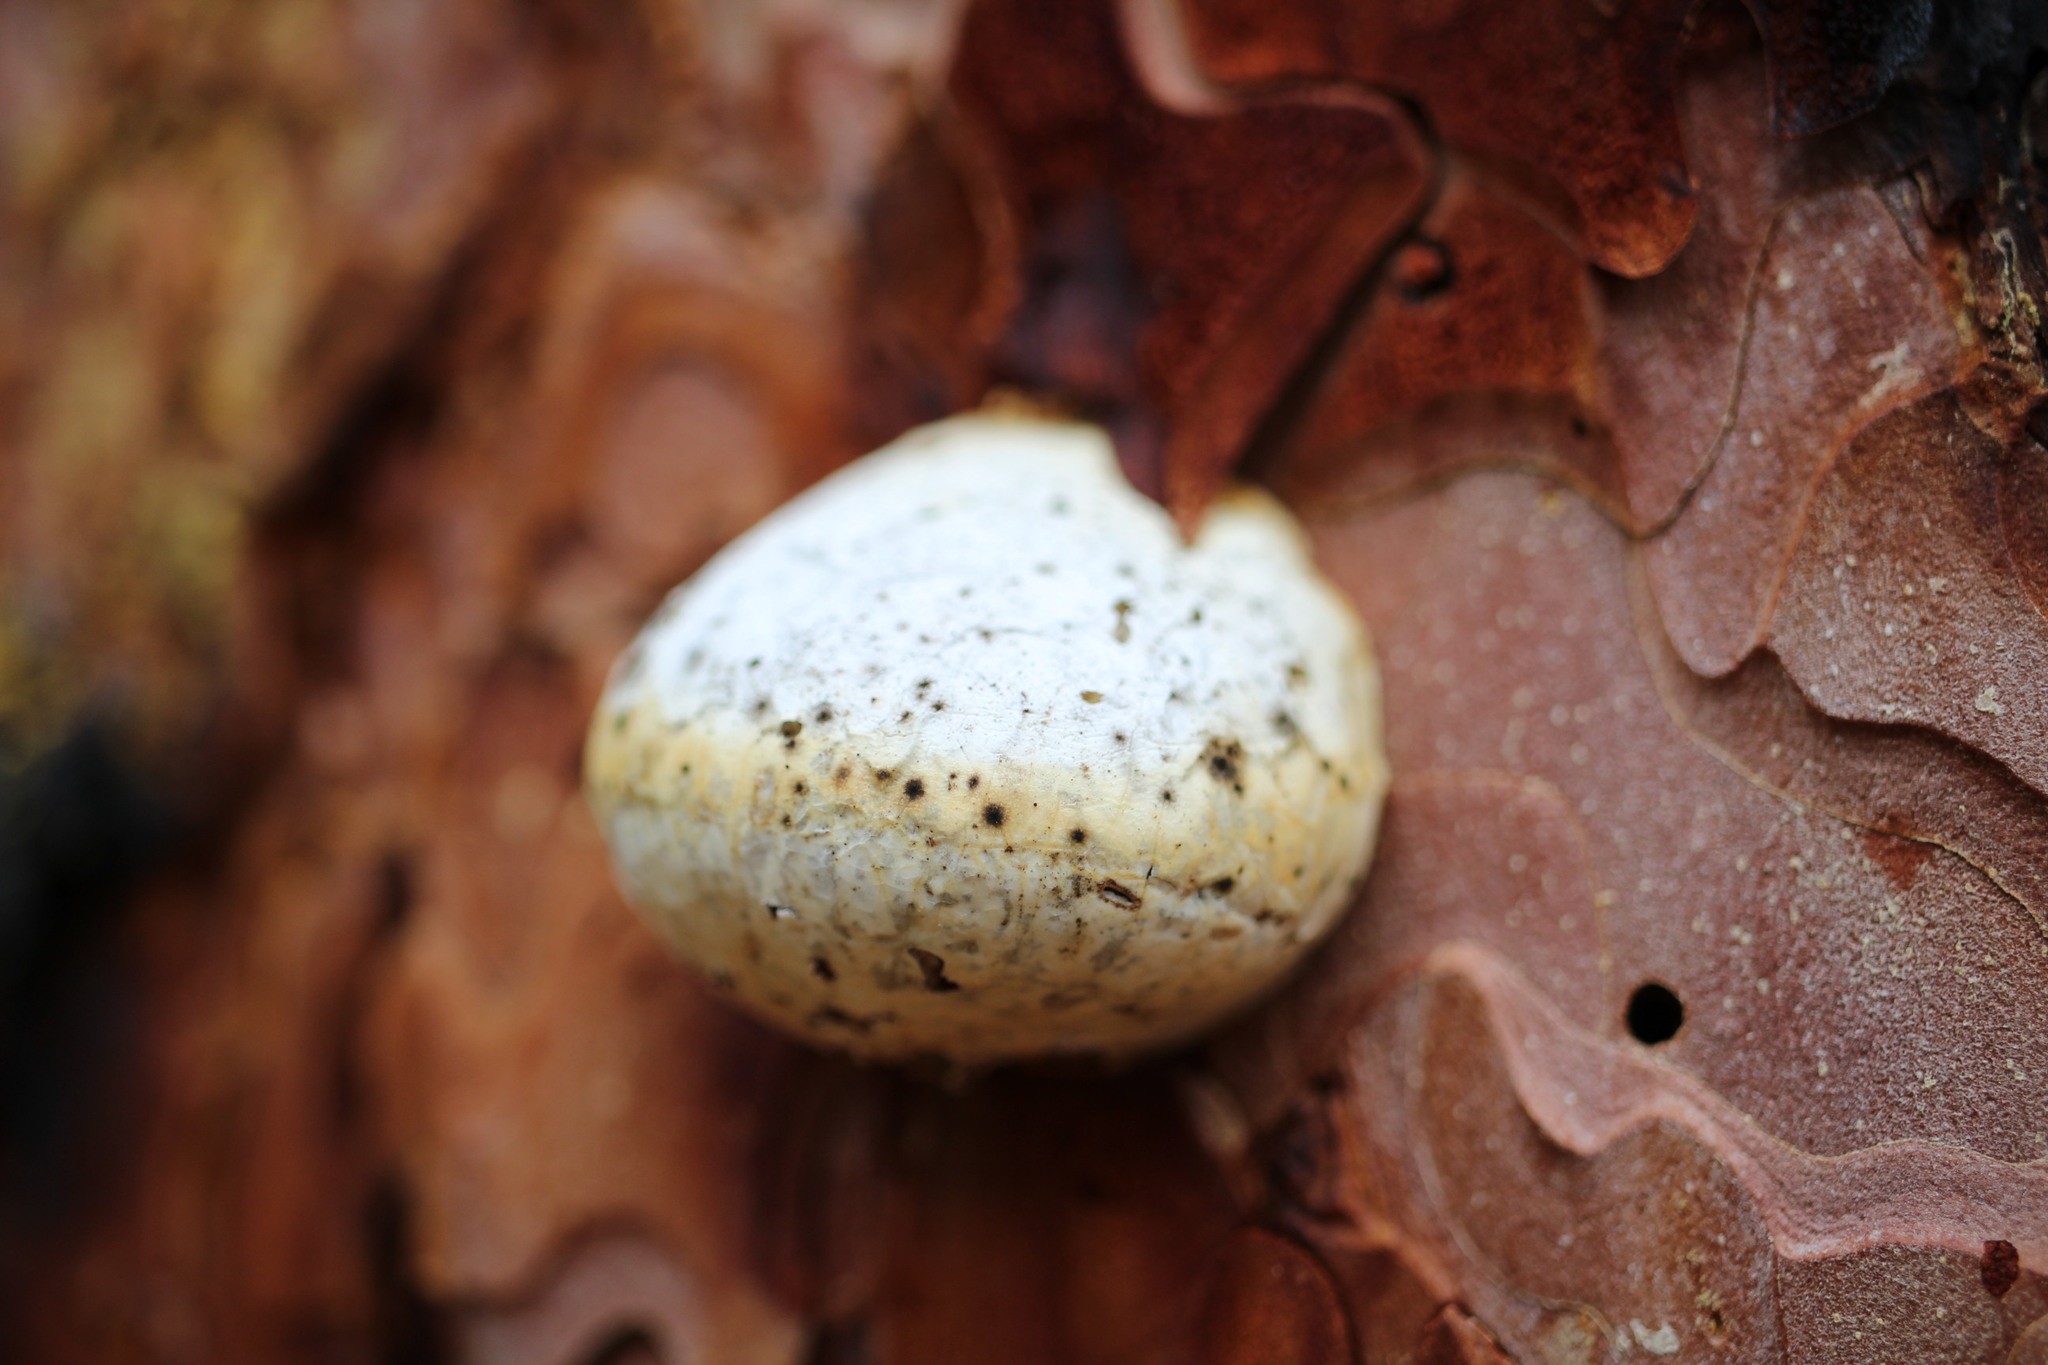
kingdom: Fungi
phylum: Basidiomycota
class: Agaricomycetes
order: Polyporales
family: Polyporaceae
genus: Cryptoporus
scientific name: Cryptoporus volvatus
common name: Veiled polypore
